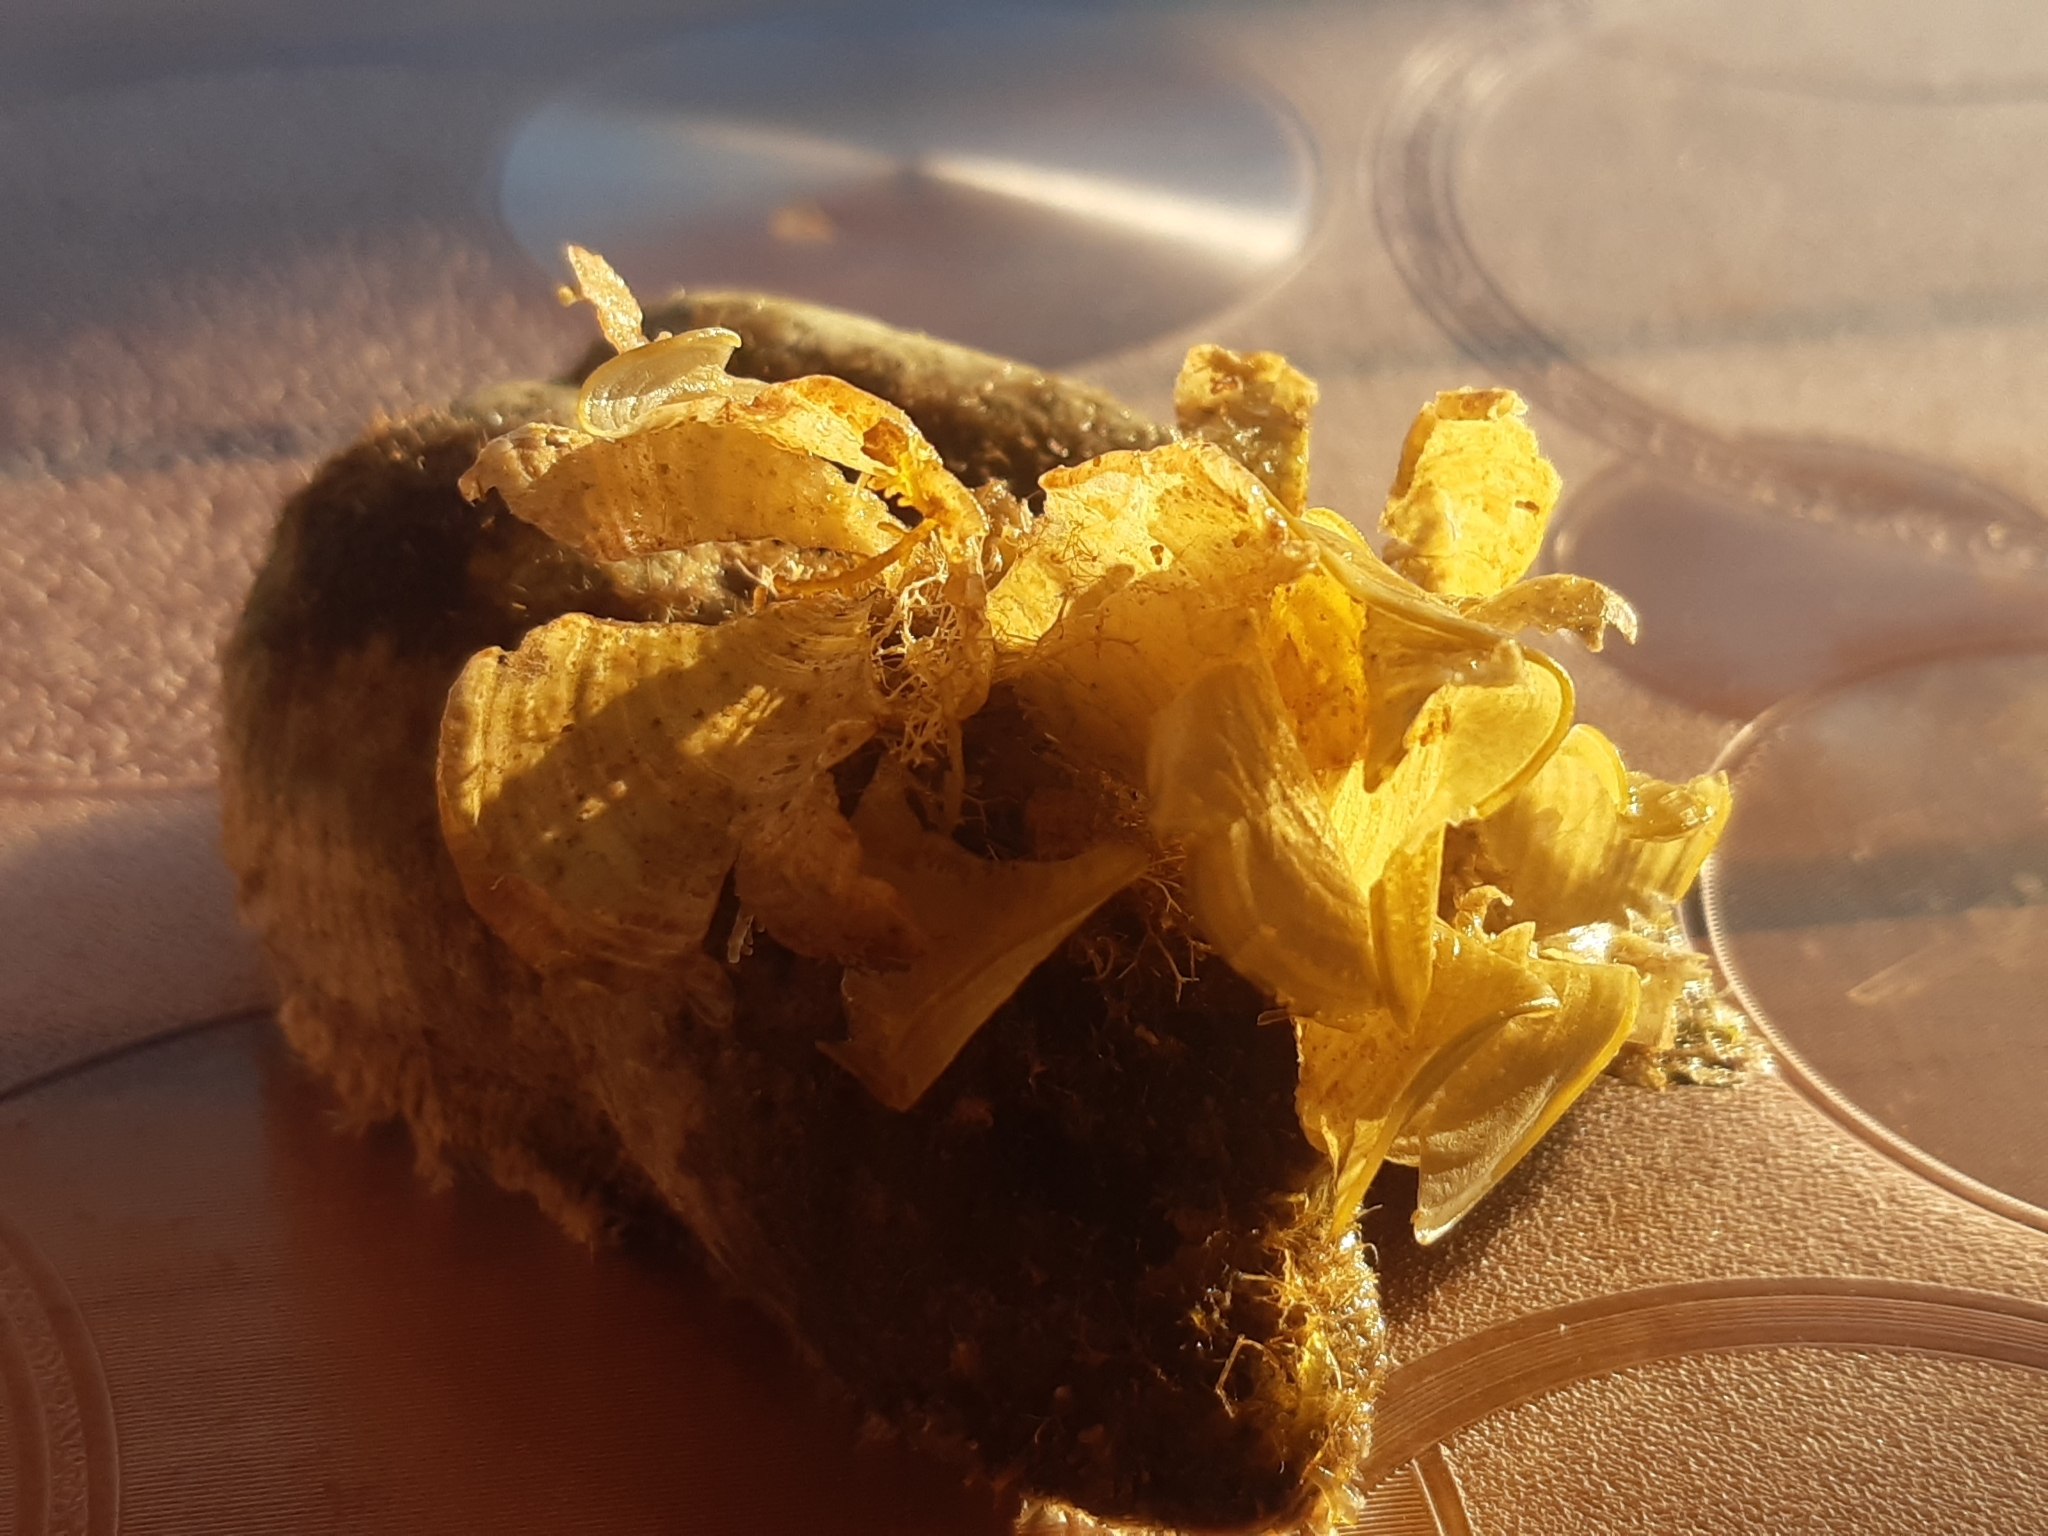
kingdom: Chromista
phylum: Ochrophyta
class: Phaeophyceae
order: Dictyotales
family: Dictyotaceae
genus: Padina
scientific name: Padina
